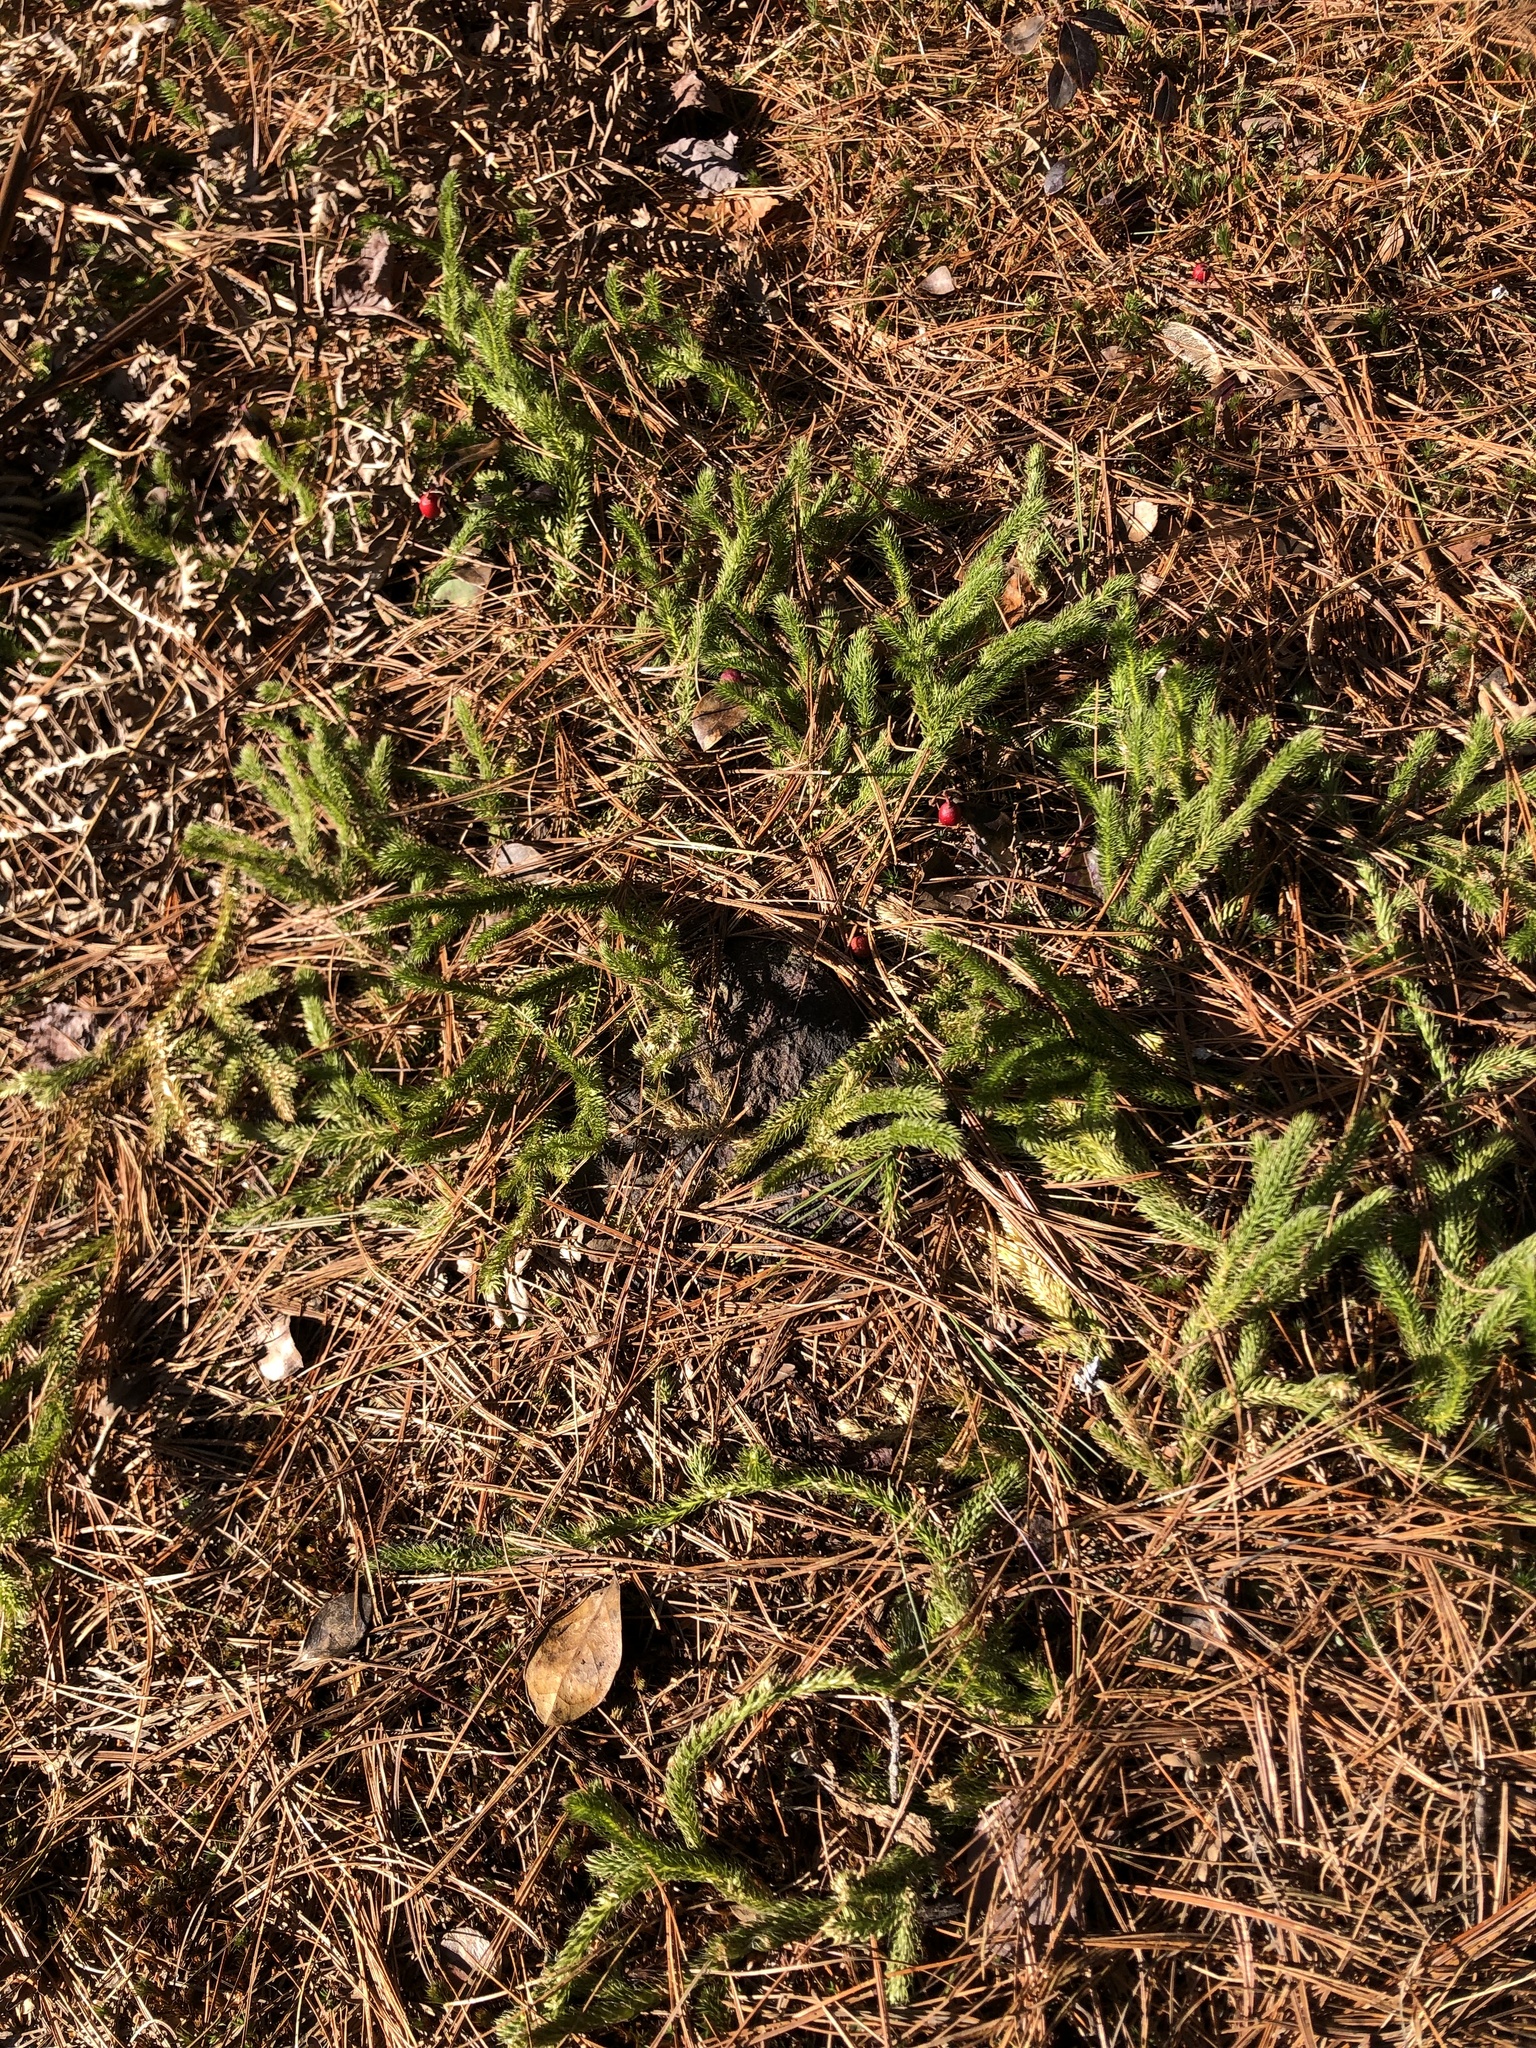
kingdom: Plantae
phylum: Tracheophyta
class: Magnoliopsida
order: Ericales
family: Ericaceae
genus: Gaultheria
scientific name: Gaultheria procumbens
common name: Checkerberry
